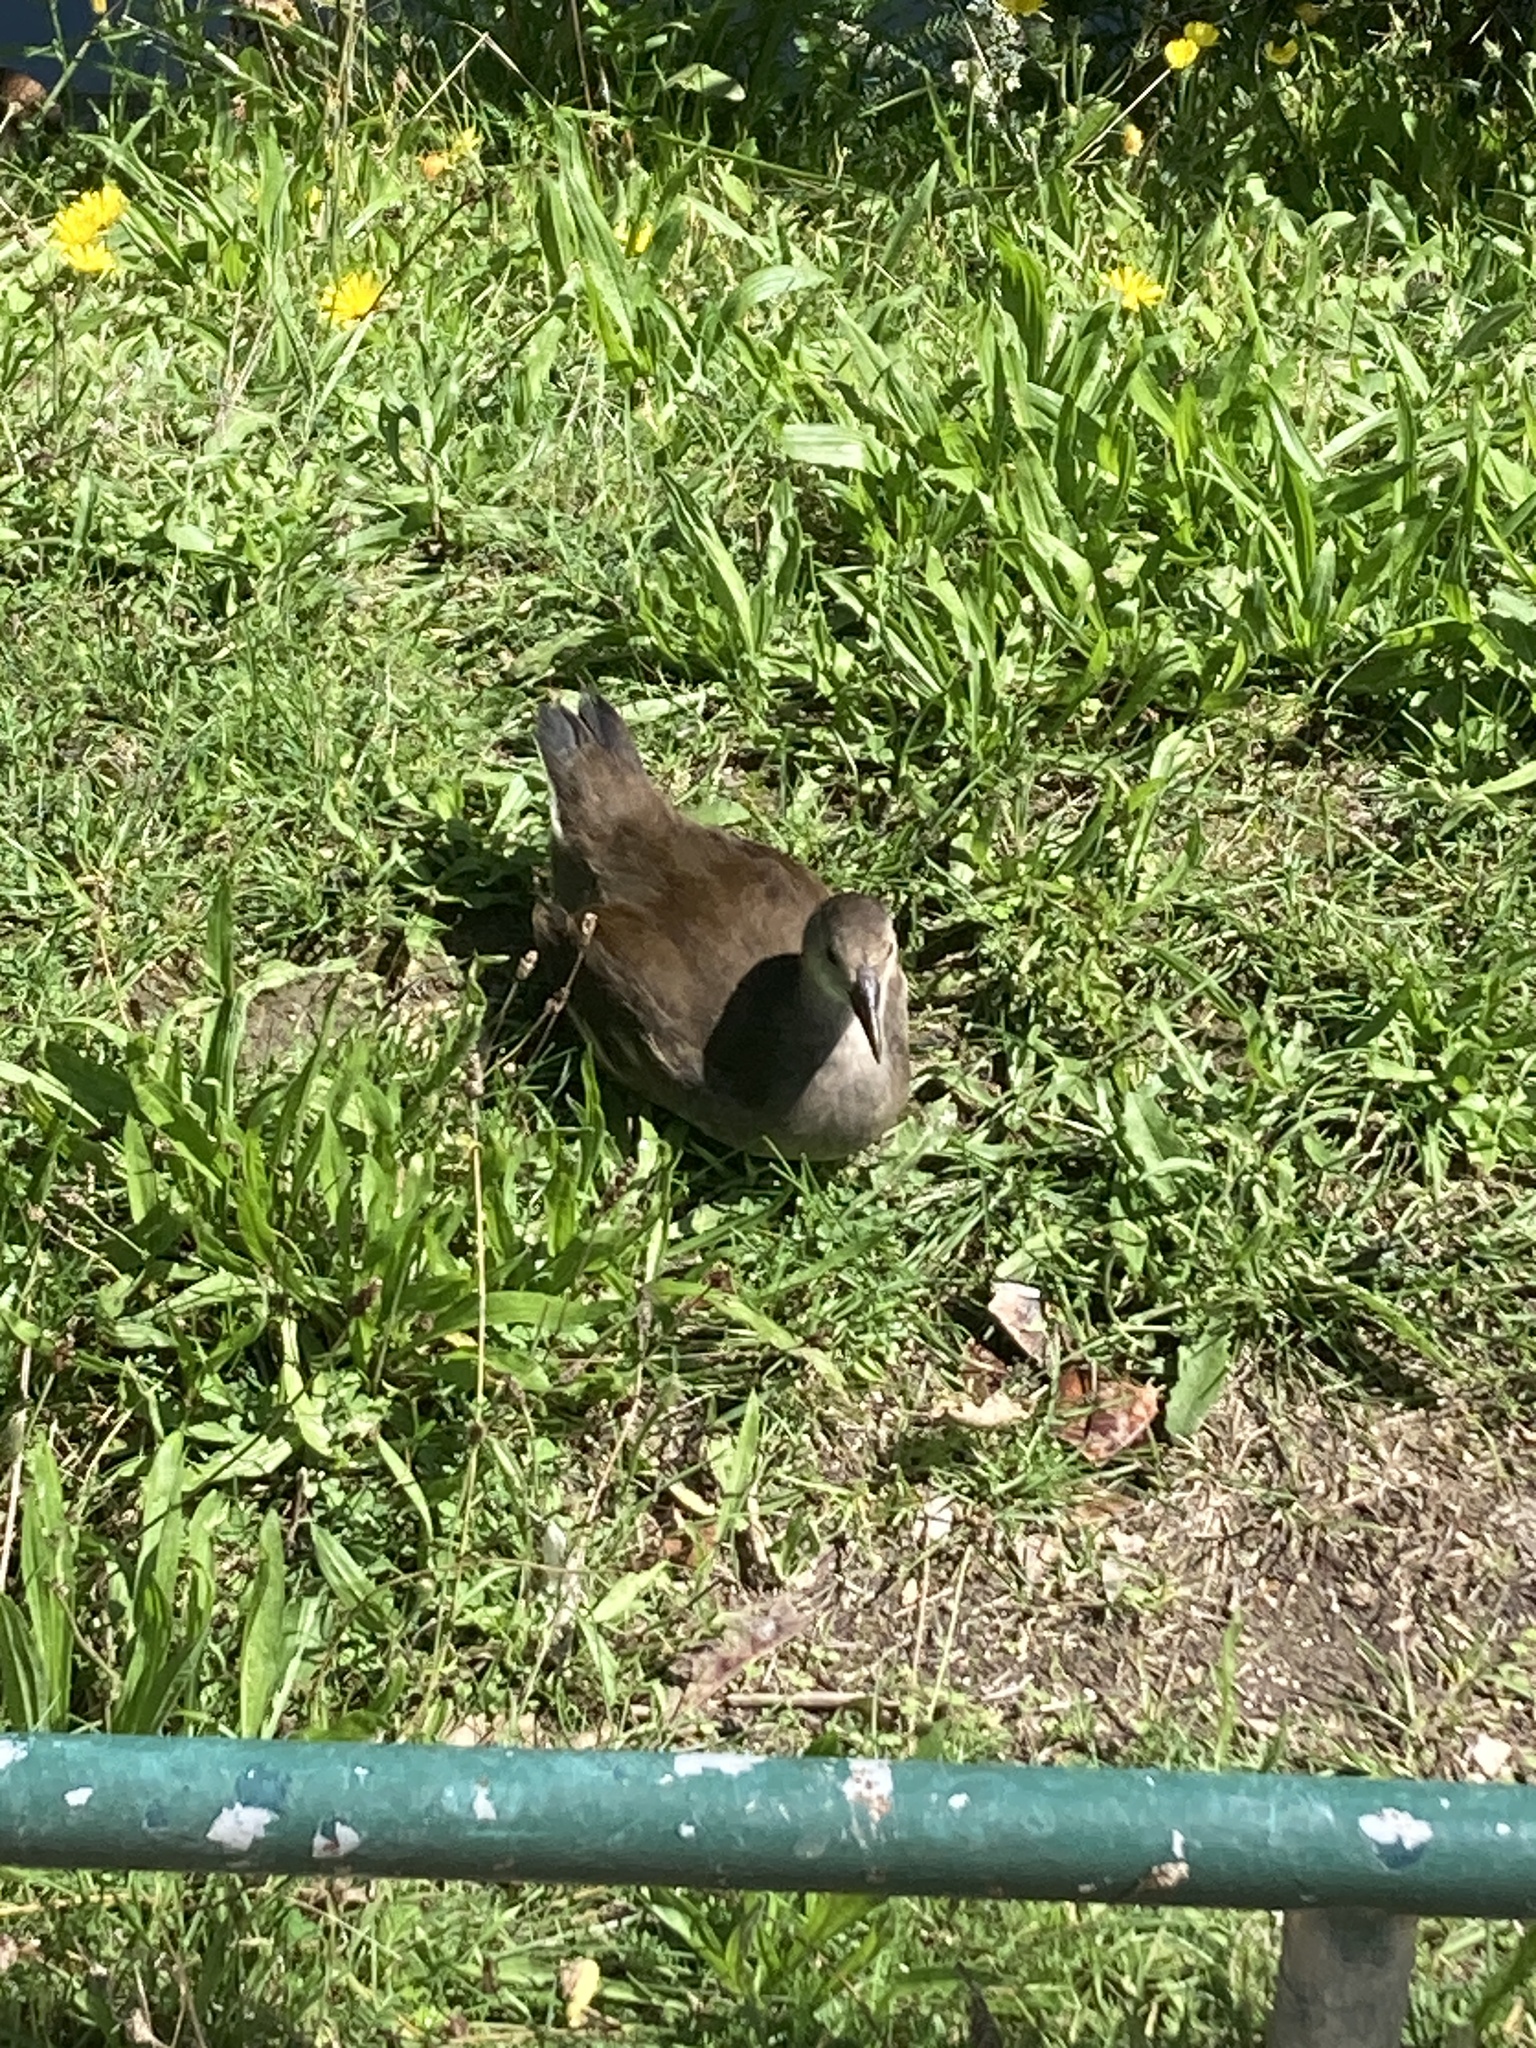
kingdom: Animalia
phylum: Chordata
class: Aves
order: Gruiformes
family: Rallidae
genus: Gallinula
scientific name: Gallinula chloropus
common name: Common moorhen
